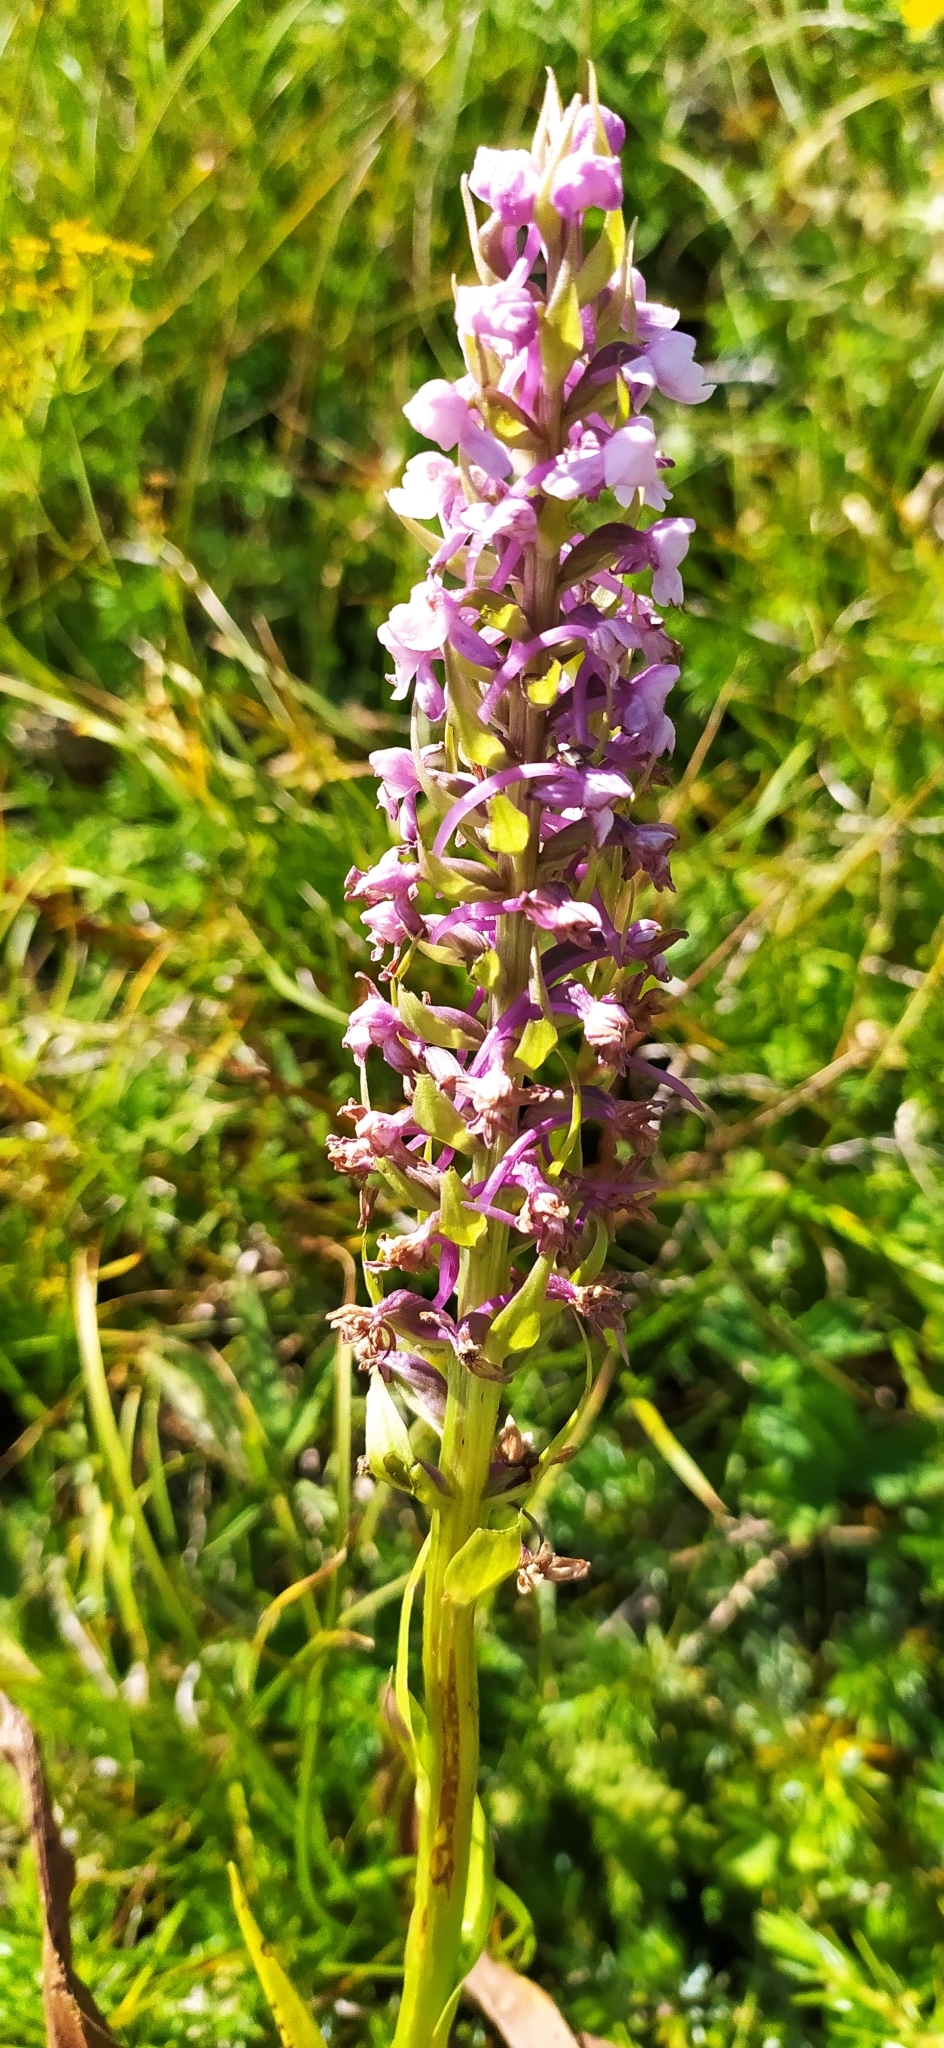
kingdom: Plantae
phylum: Tracheophyta
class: Liliopsida
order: Asparagales
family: Orchidaceae
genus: Gymnadenia
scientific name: Gymnadenia conopsea
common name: Fragrant orchid
